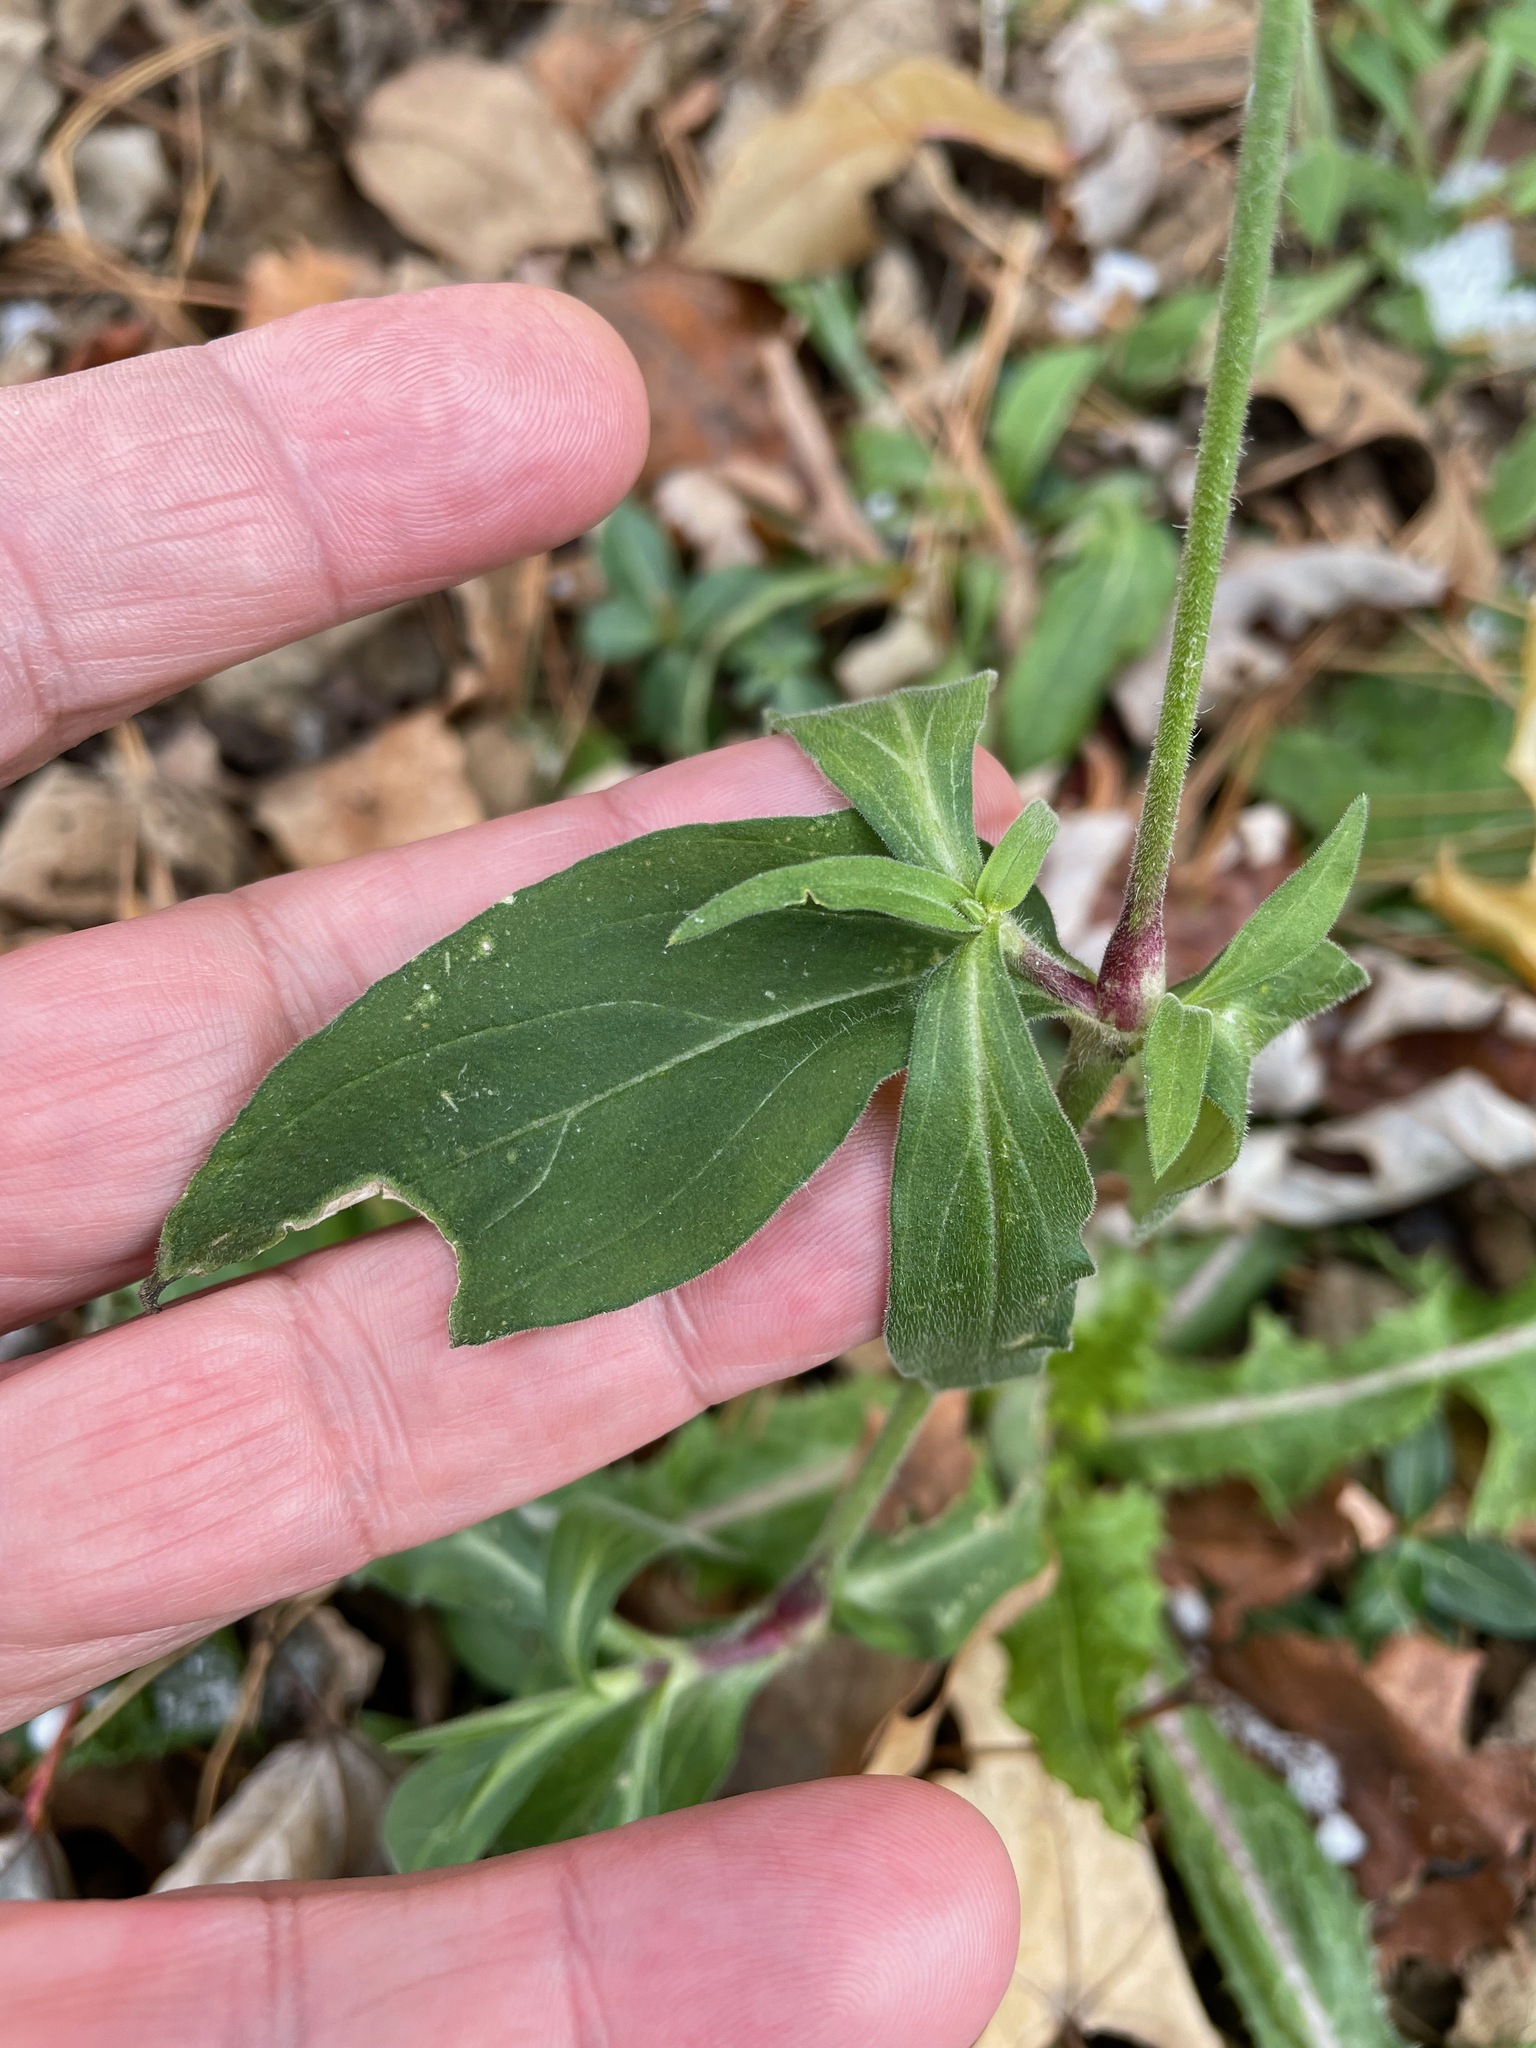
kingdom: Plantae
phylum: Tracheophyta
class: Magnoliopsida
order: Caryophyllales
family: Caryophyllaceae
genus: Silene
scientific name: Silene latifolia
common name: White campion
